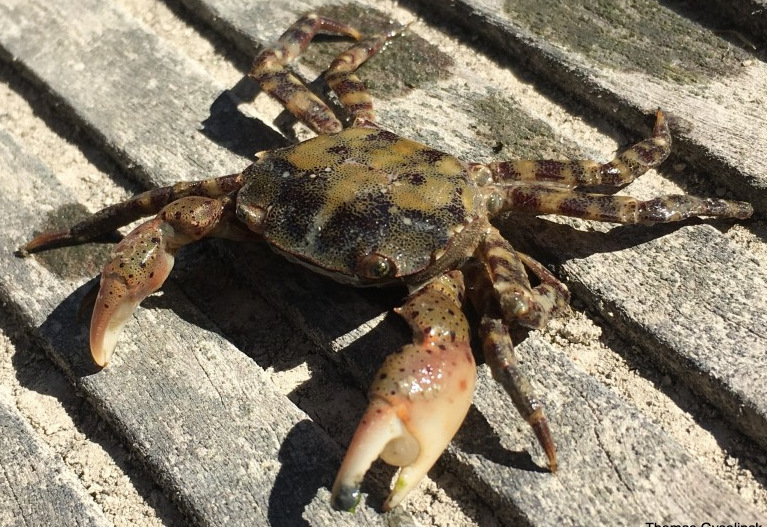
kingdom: Animalia
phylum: Arthropoda
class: Malacostraca
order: Decapoda
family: Varunidae
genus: Hemigrapsus
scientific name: Hemigrapsus sanguineus
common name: Asian shore crab
